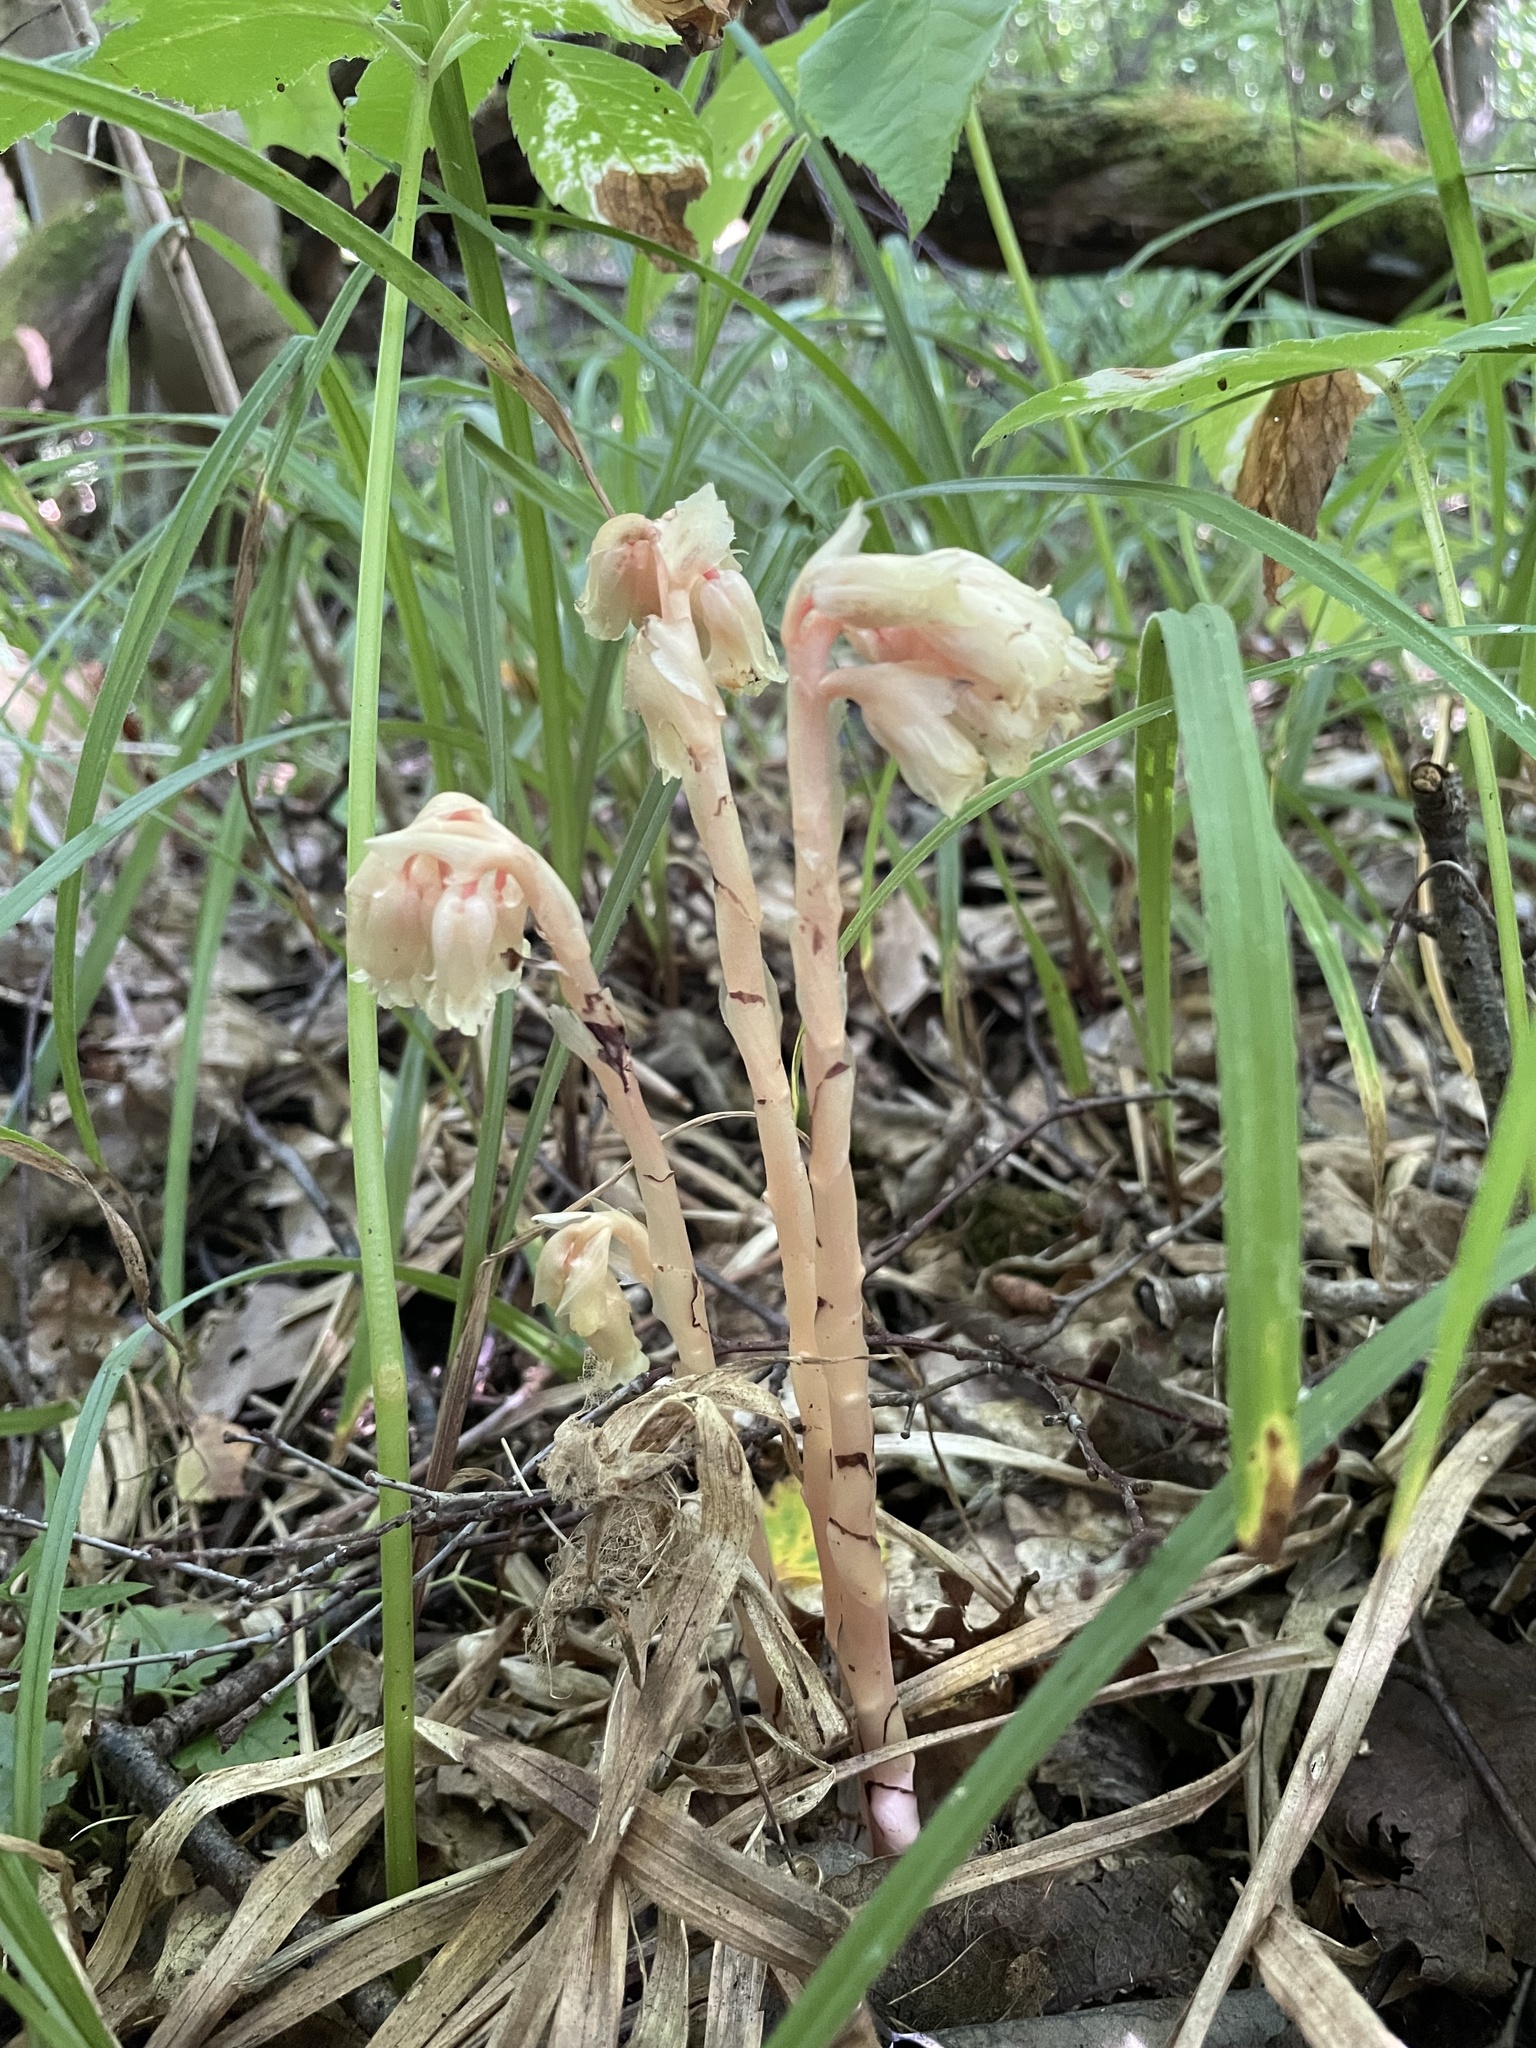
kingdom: Plantae
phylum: Tracheophyta
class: Magnoliopsida
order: Ericales
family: Ericaceae
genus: Hypopitys
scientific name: Hypopitys monotropa
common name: Yellow bird's-nest
